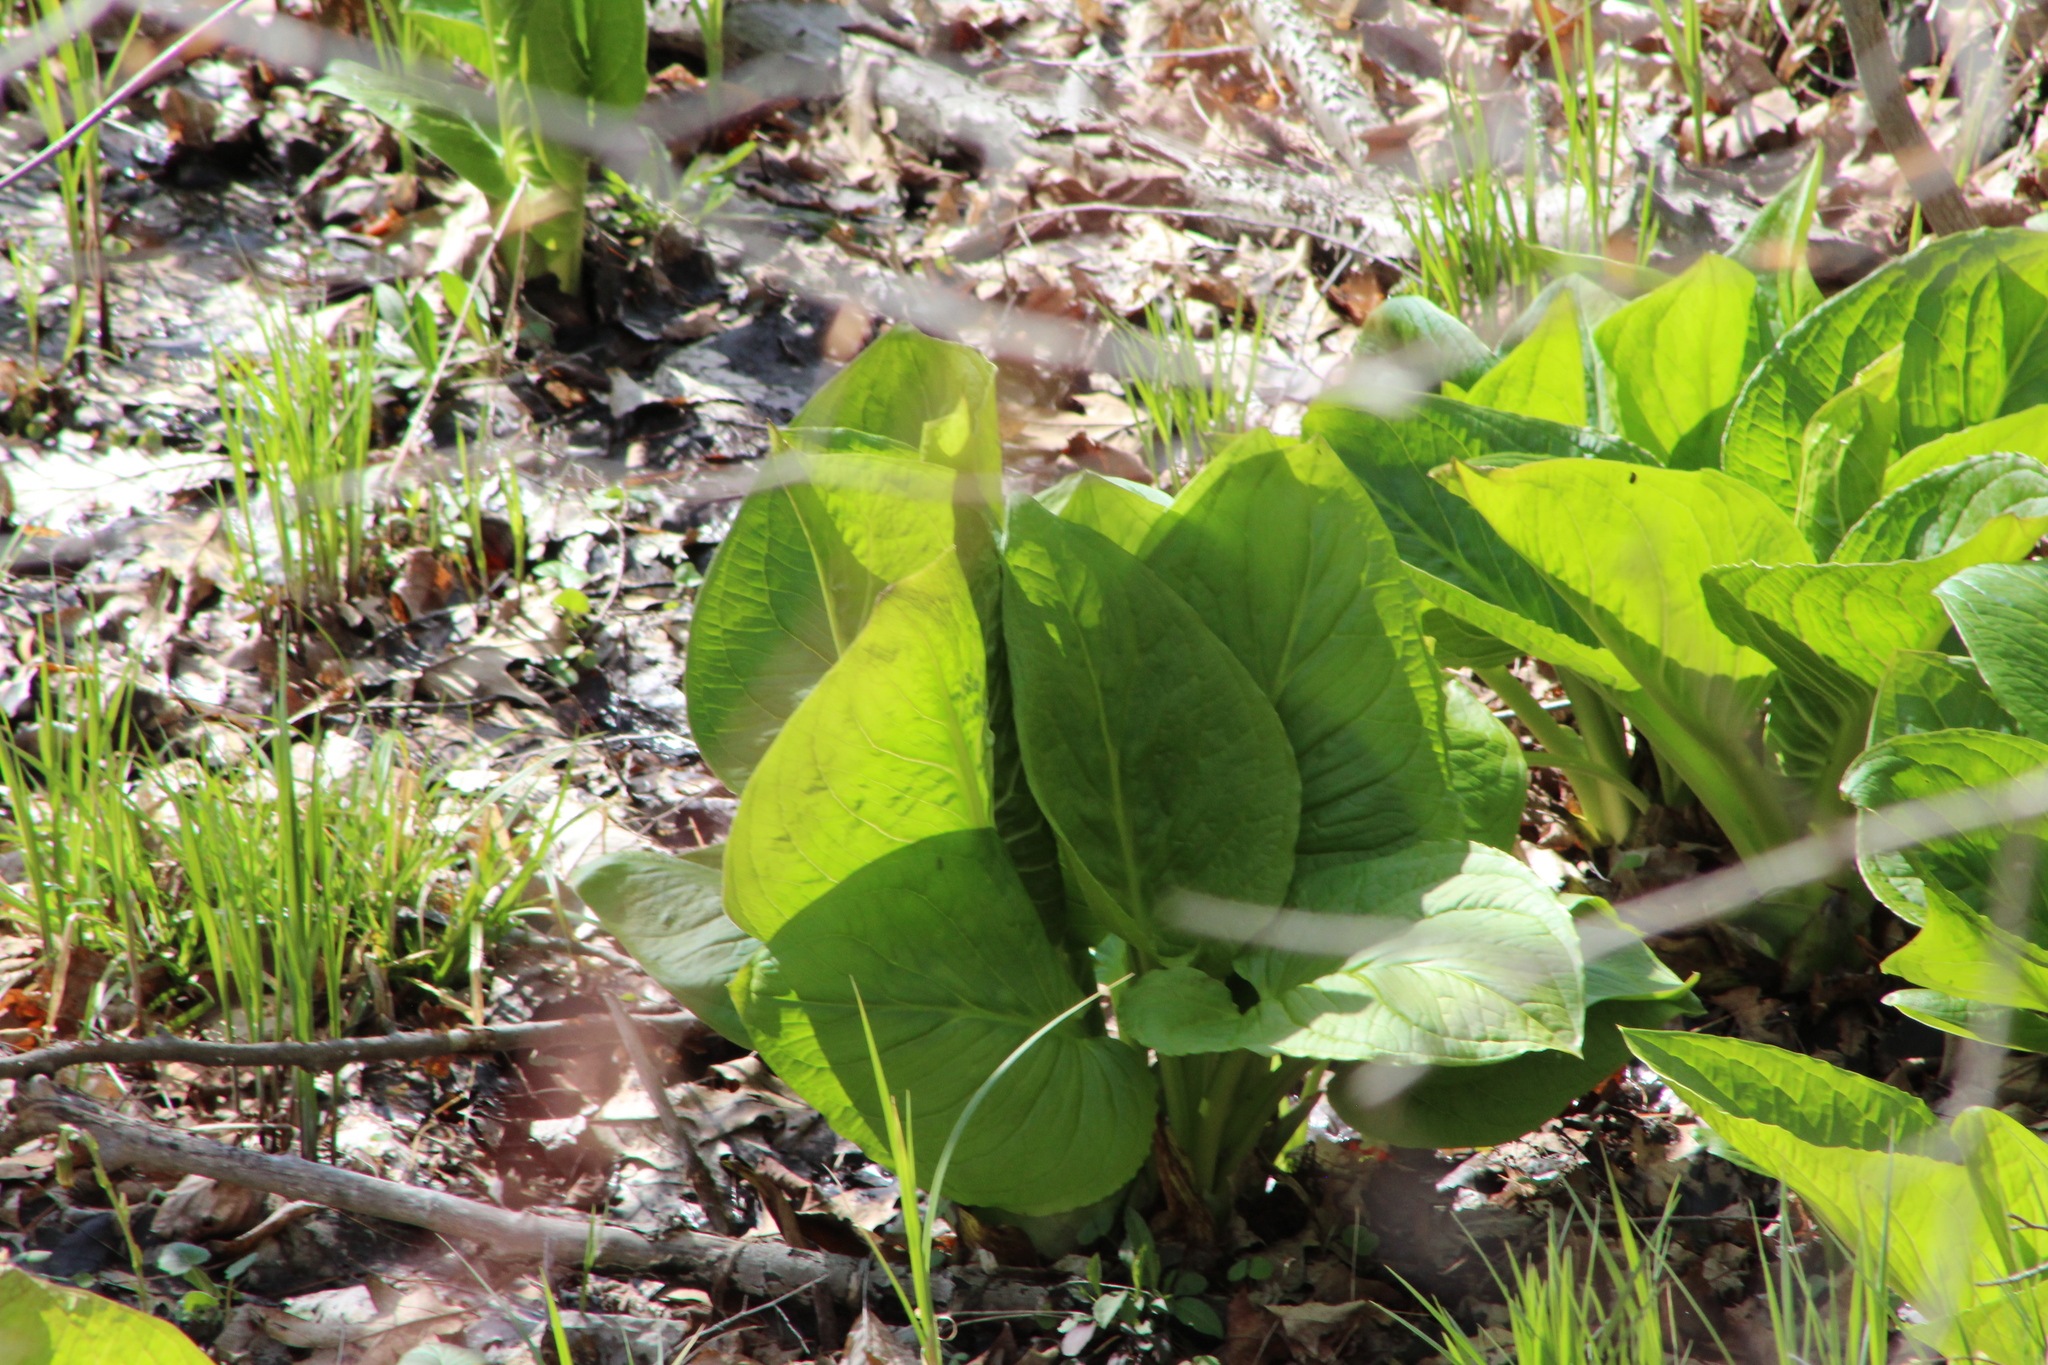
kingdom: Plantae
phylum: Tracheophyta
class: Liliopsida
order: Alismatales
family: Araceae
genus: Symplocarpus
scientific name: Symplocarpus foetidus
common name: Eastern skunk cabbage
